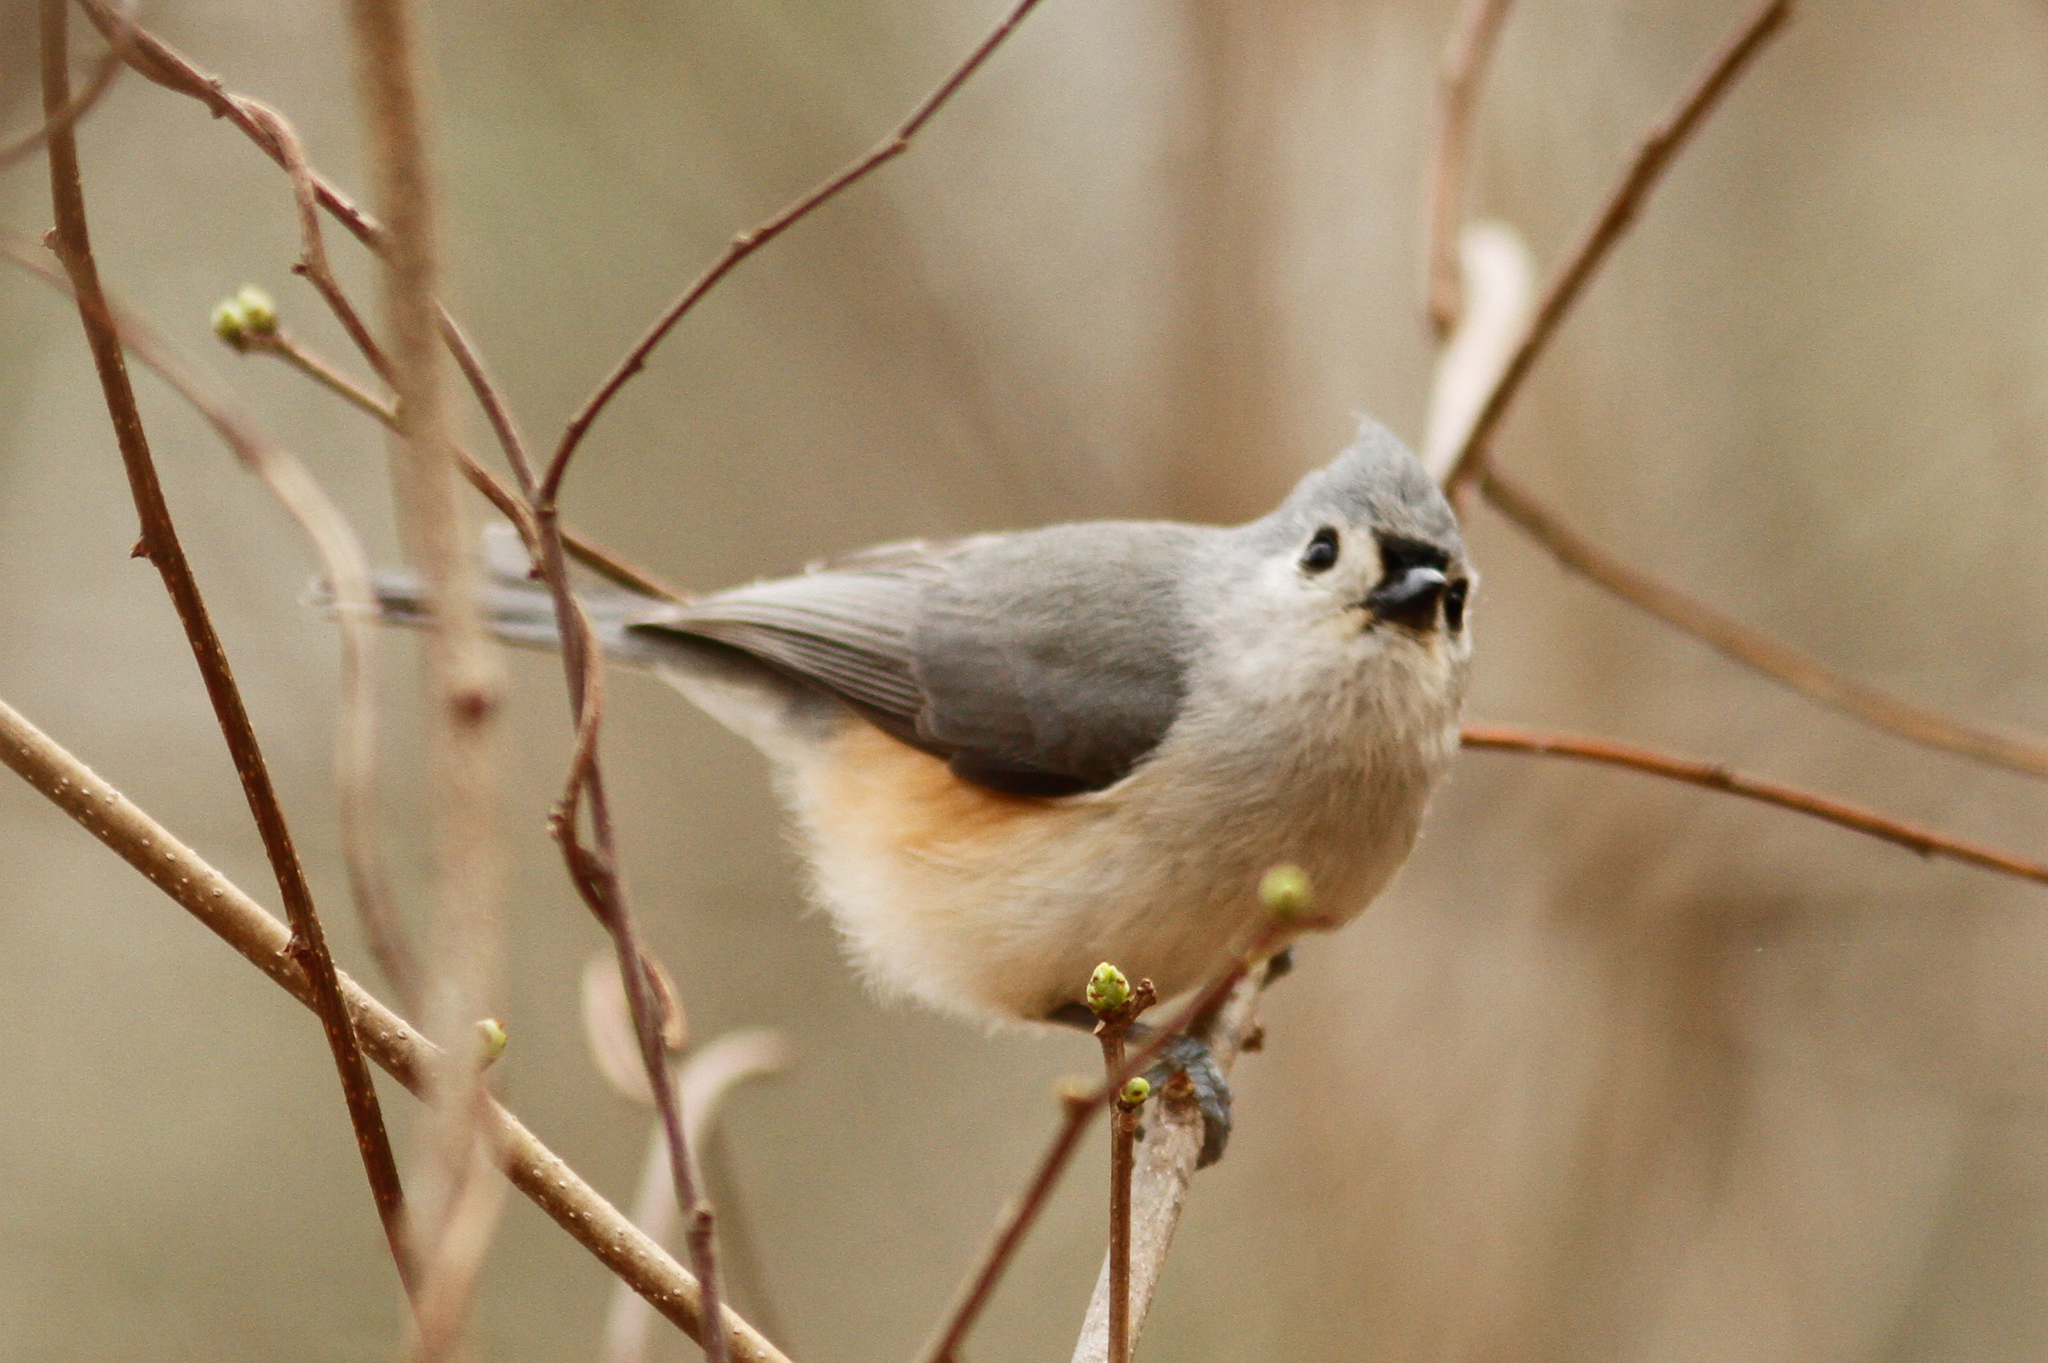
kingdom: Animalia
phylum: Chordata
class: Aves
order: Passeriformes
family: Paridae
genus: Baeolophus
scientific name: Baeolophus bicolor
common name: Tufted titmouse
